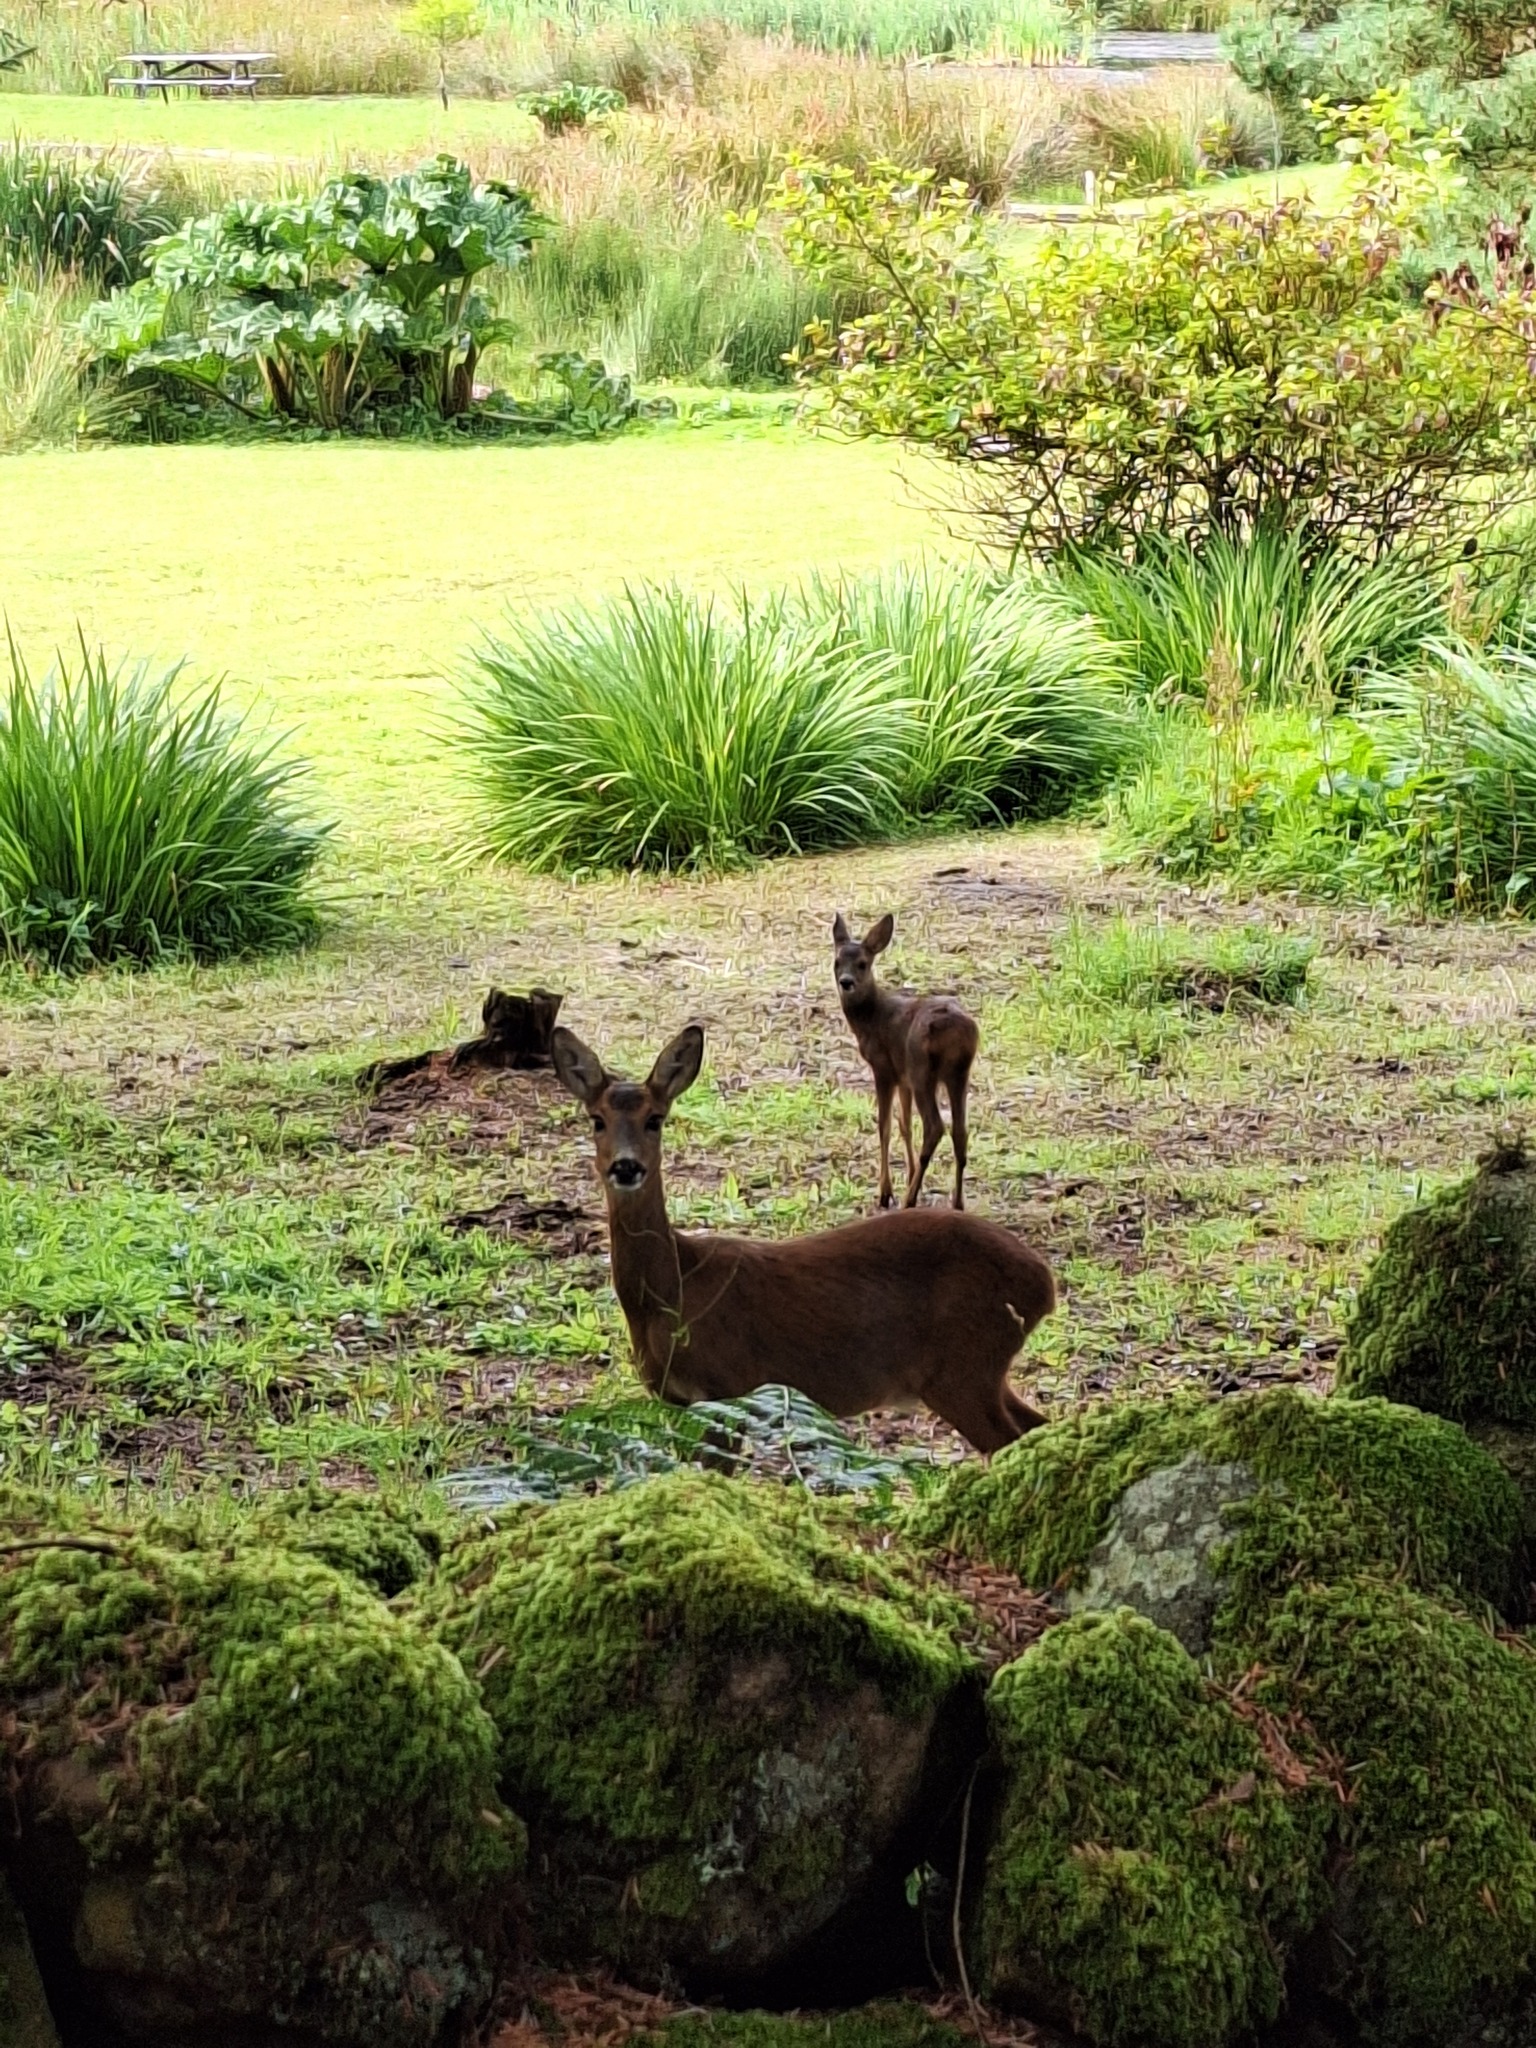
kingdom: Animalia
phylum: Chordata
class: Mammalia
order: Artiodactyla
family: Cervidae
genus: Capreolus
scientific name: Capreolus capreolus
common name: Western roe deer
